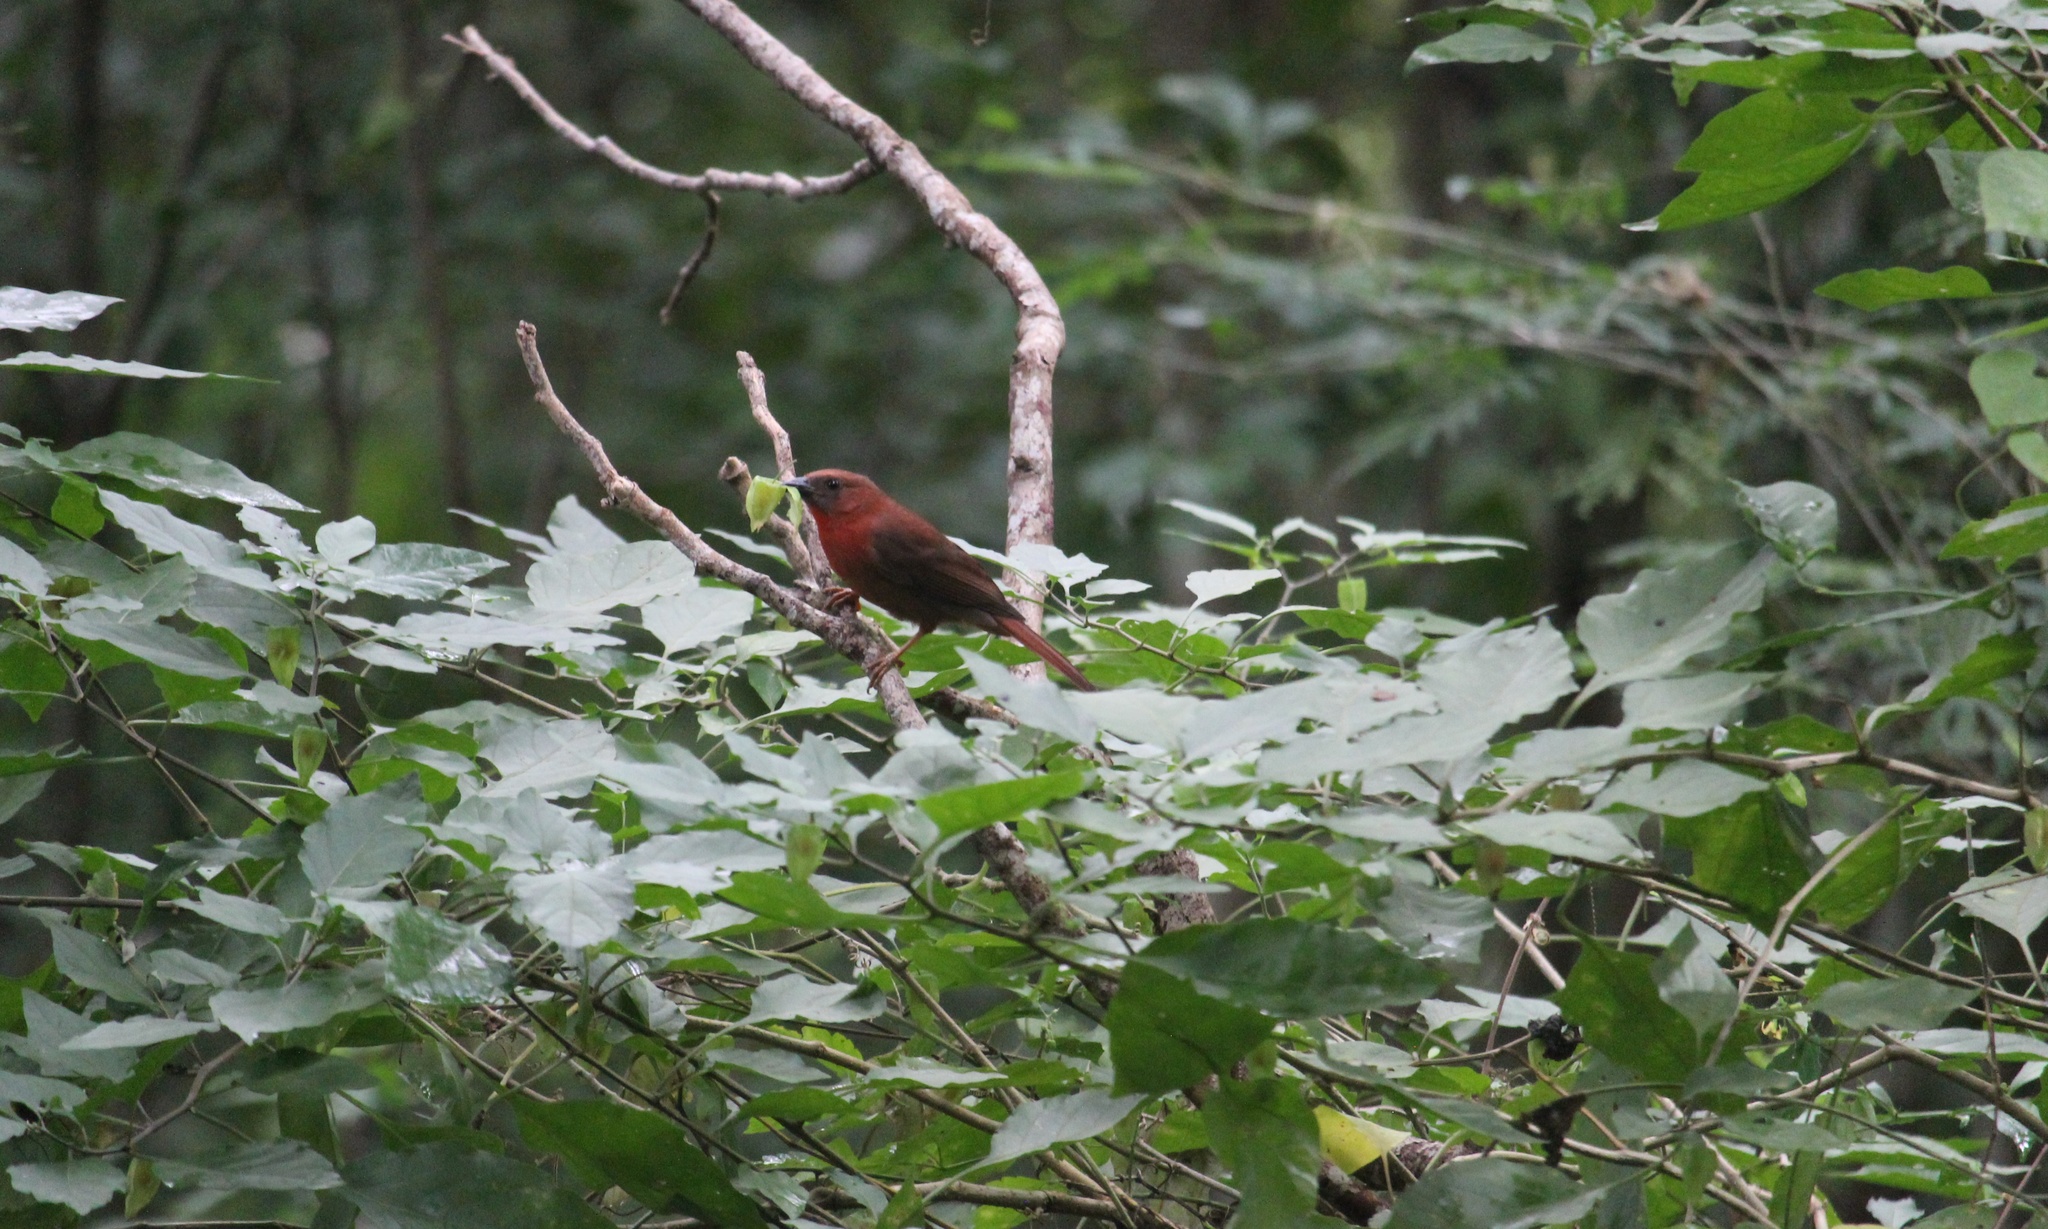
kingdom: Animalia
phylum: Chordata
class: Aves
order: Passeriformes
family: Cardinalidae
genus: Habia
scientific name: Habia fuscicauda
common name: Red-throated ant-tanager
